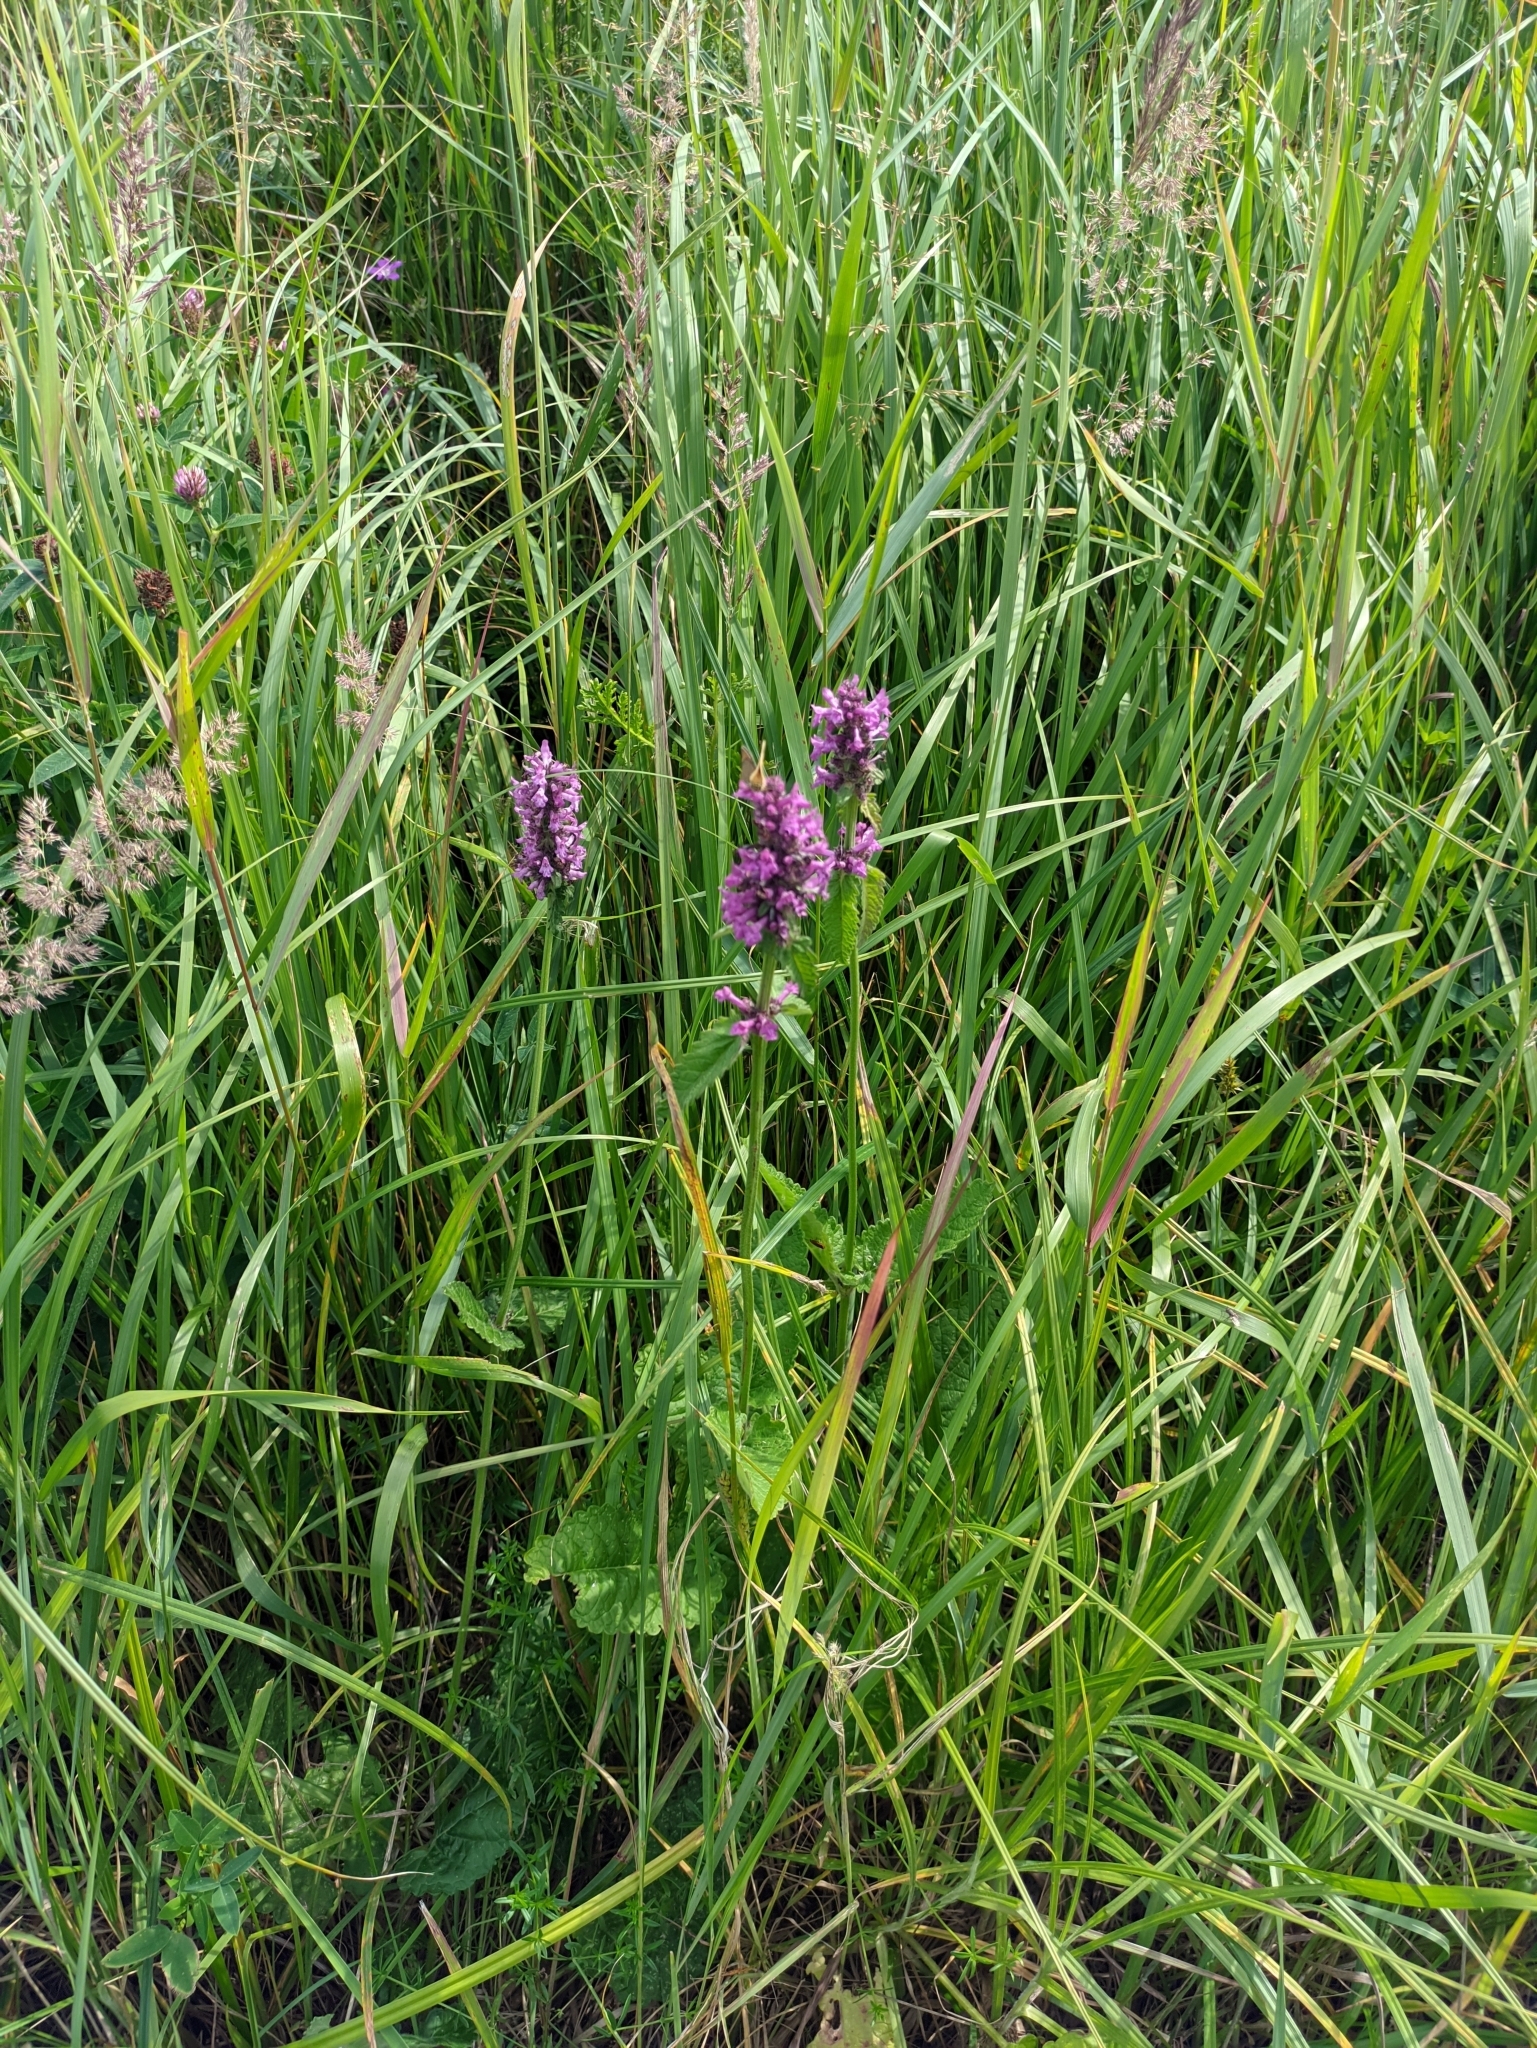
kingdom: Plantae
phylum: Tracheophyta
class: Magnoliopsida
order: Lamiales
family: Lamiaceae
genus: Betonica
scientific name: Betonica officinalis
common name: Bishop's-wort
